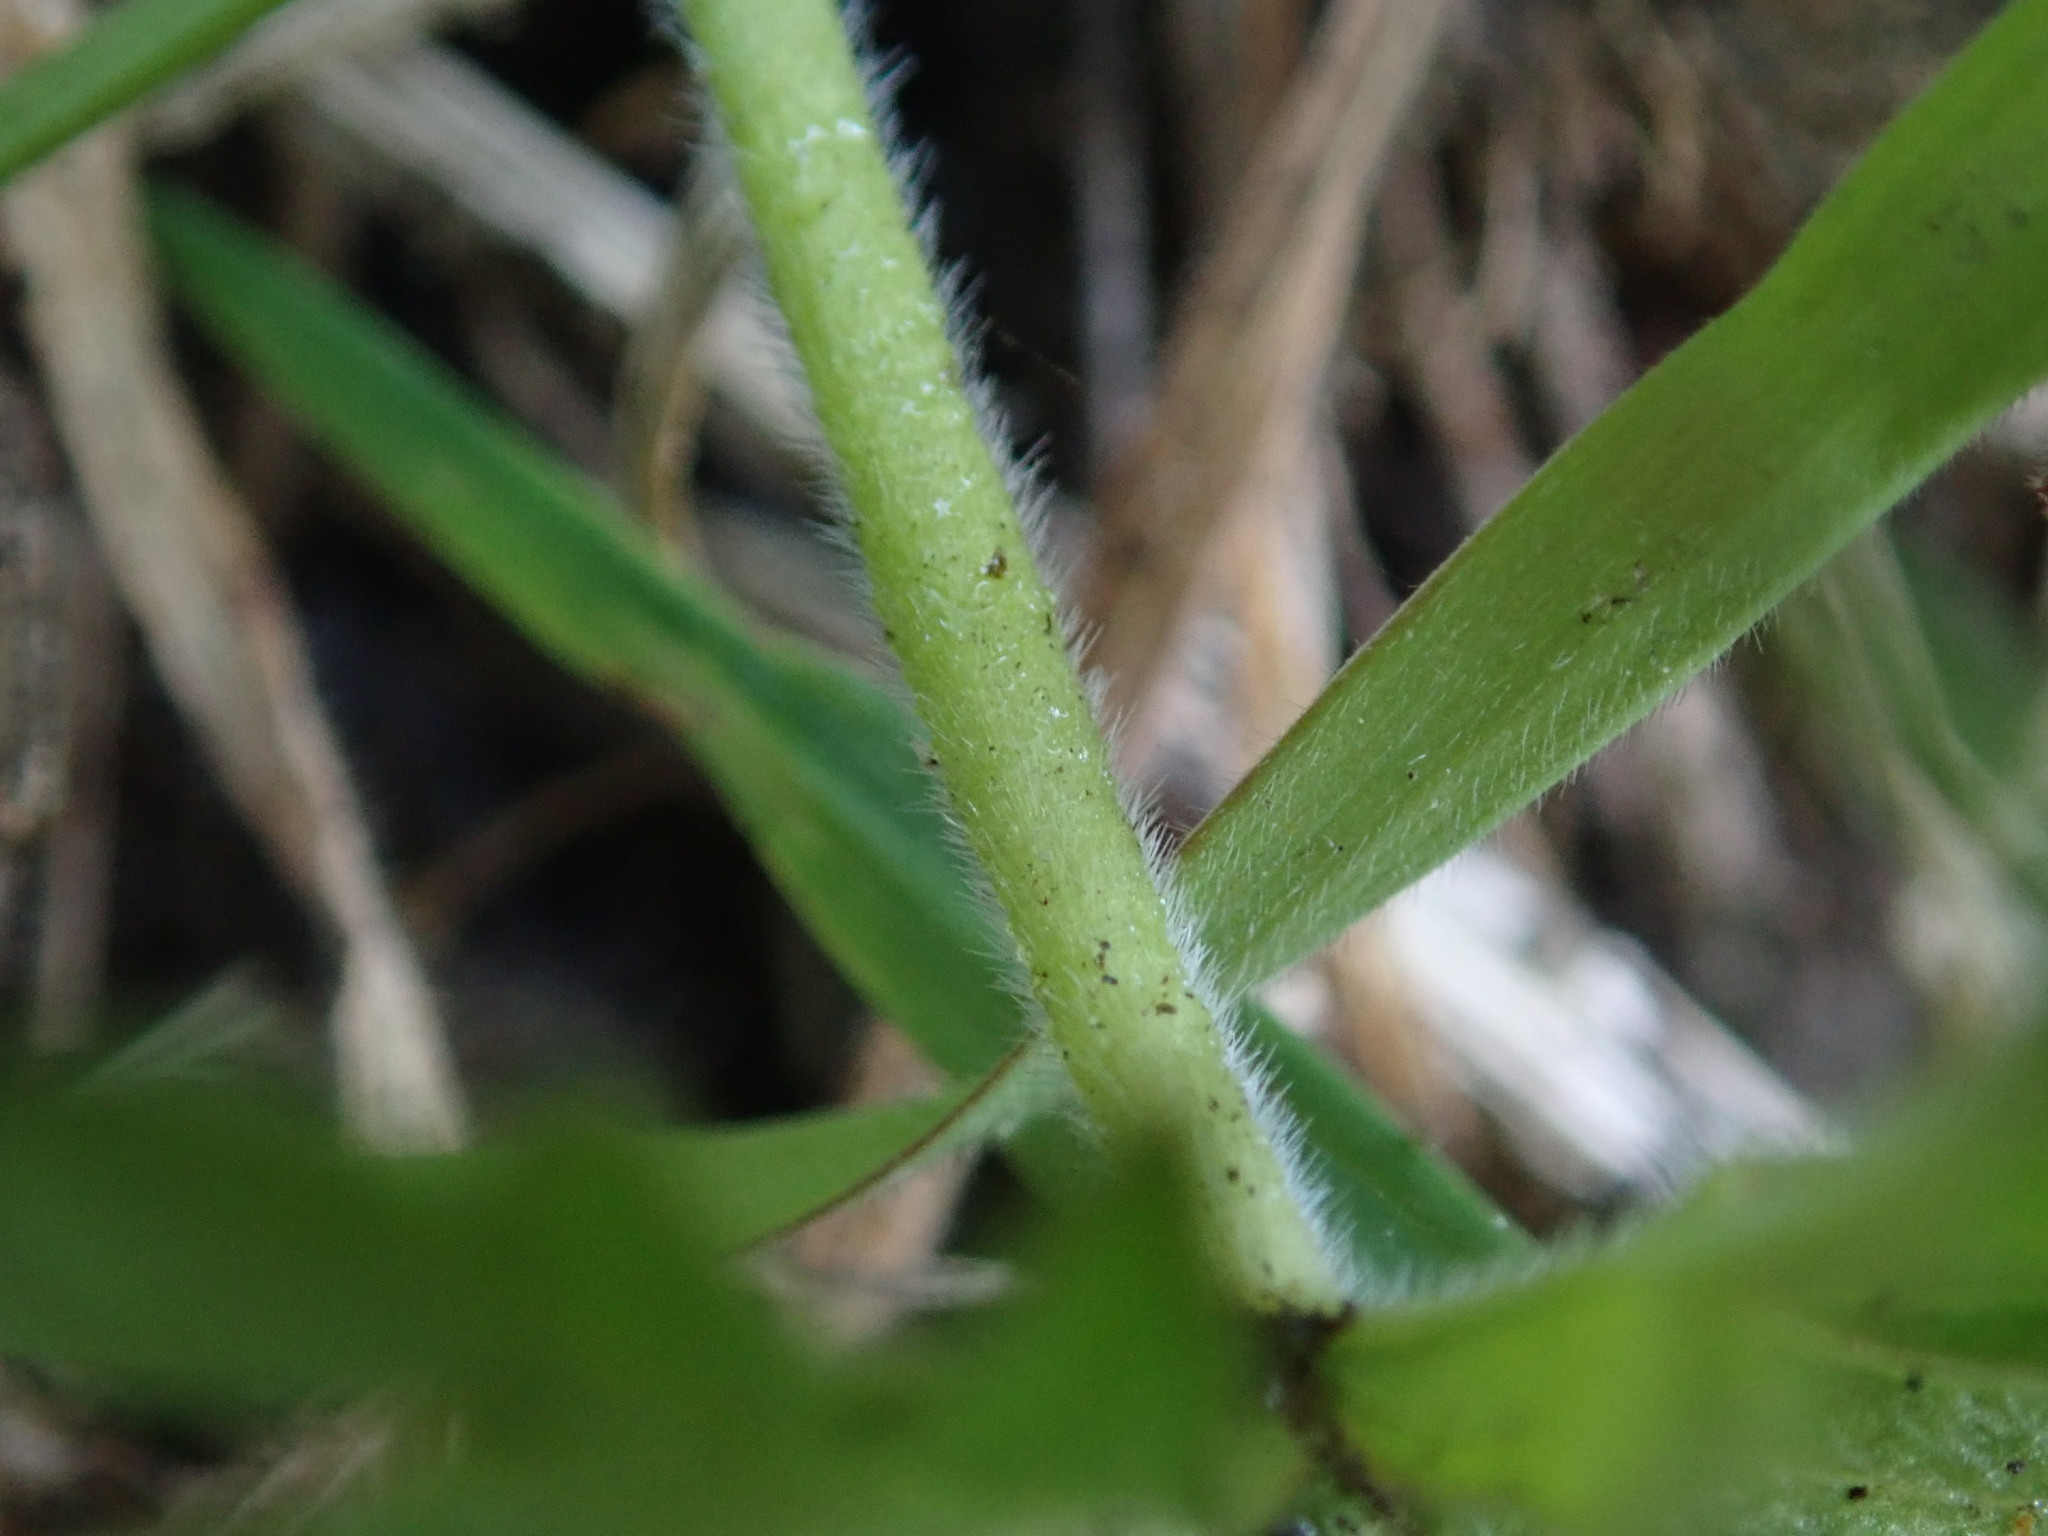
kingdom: Plantae
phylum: Tracheophyta
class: Magnoliopsida
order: Geraniales
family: Geraniaceae
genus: Geranium
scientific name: Geranium dissectum
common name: Cut-leaved crane's-bill
